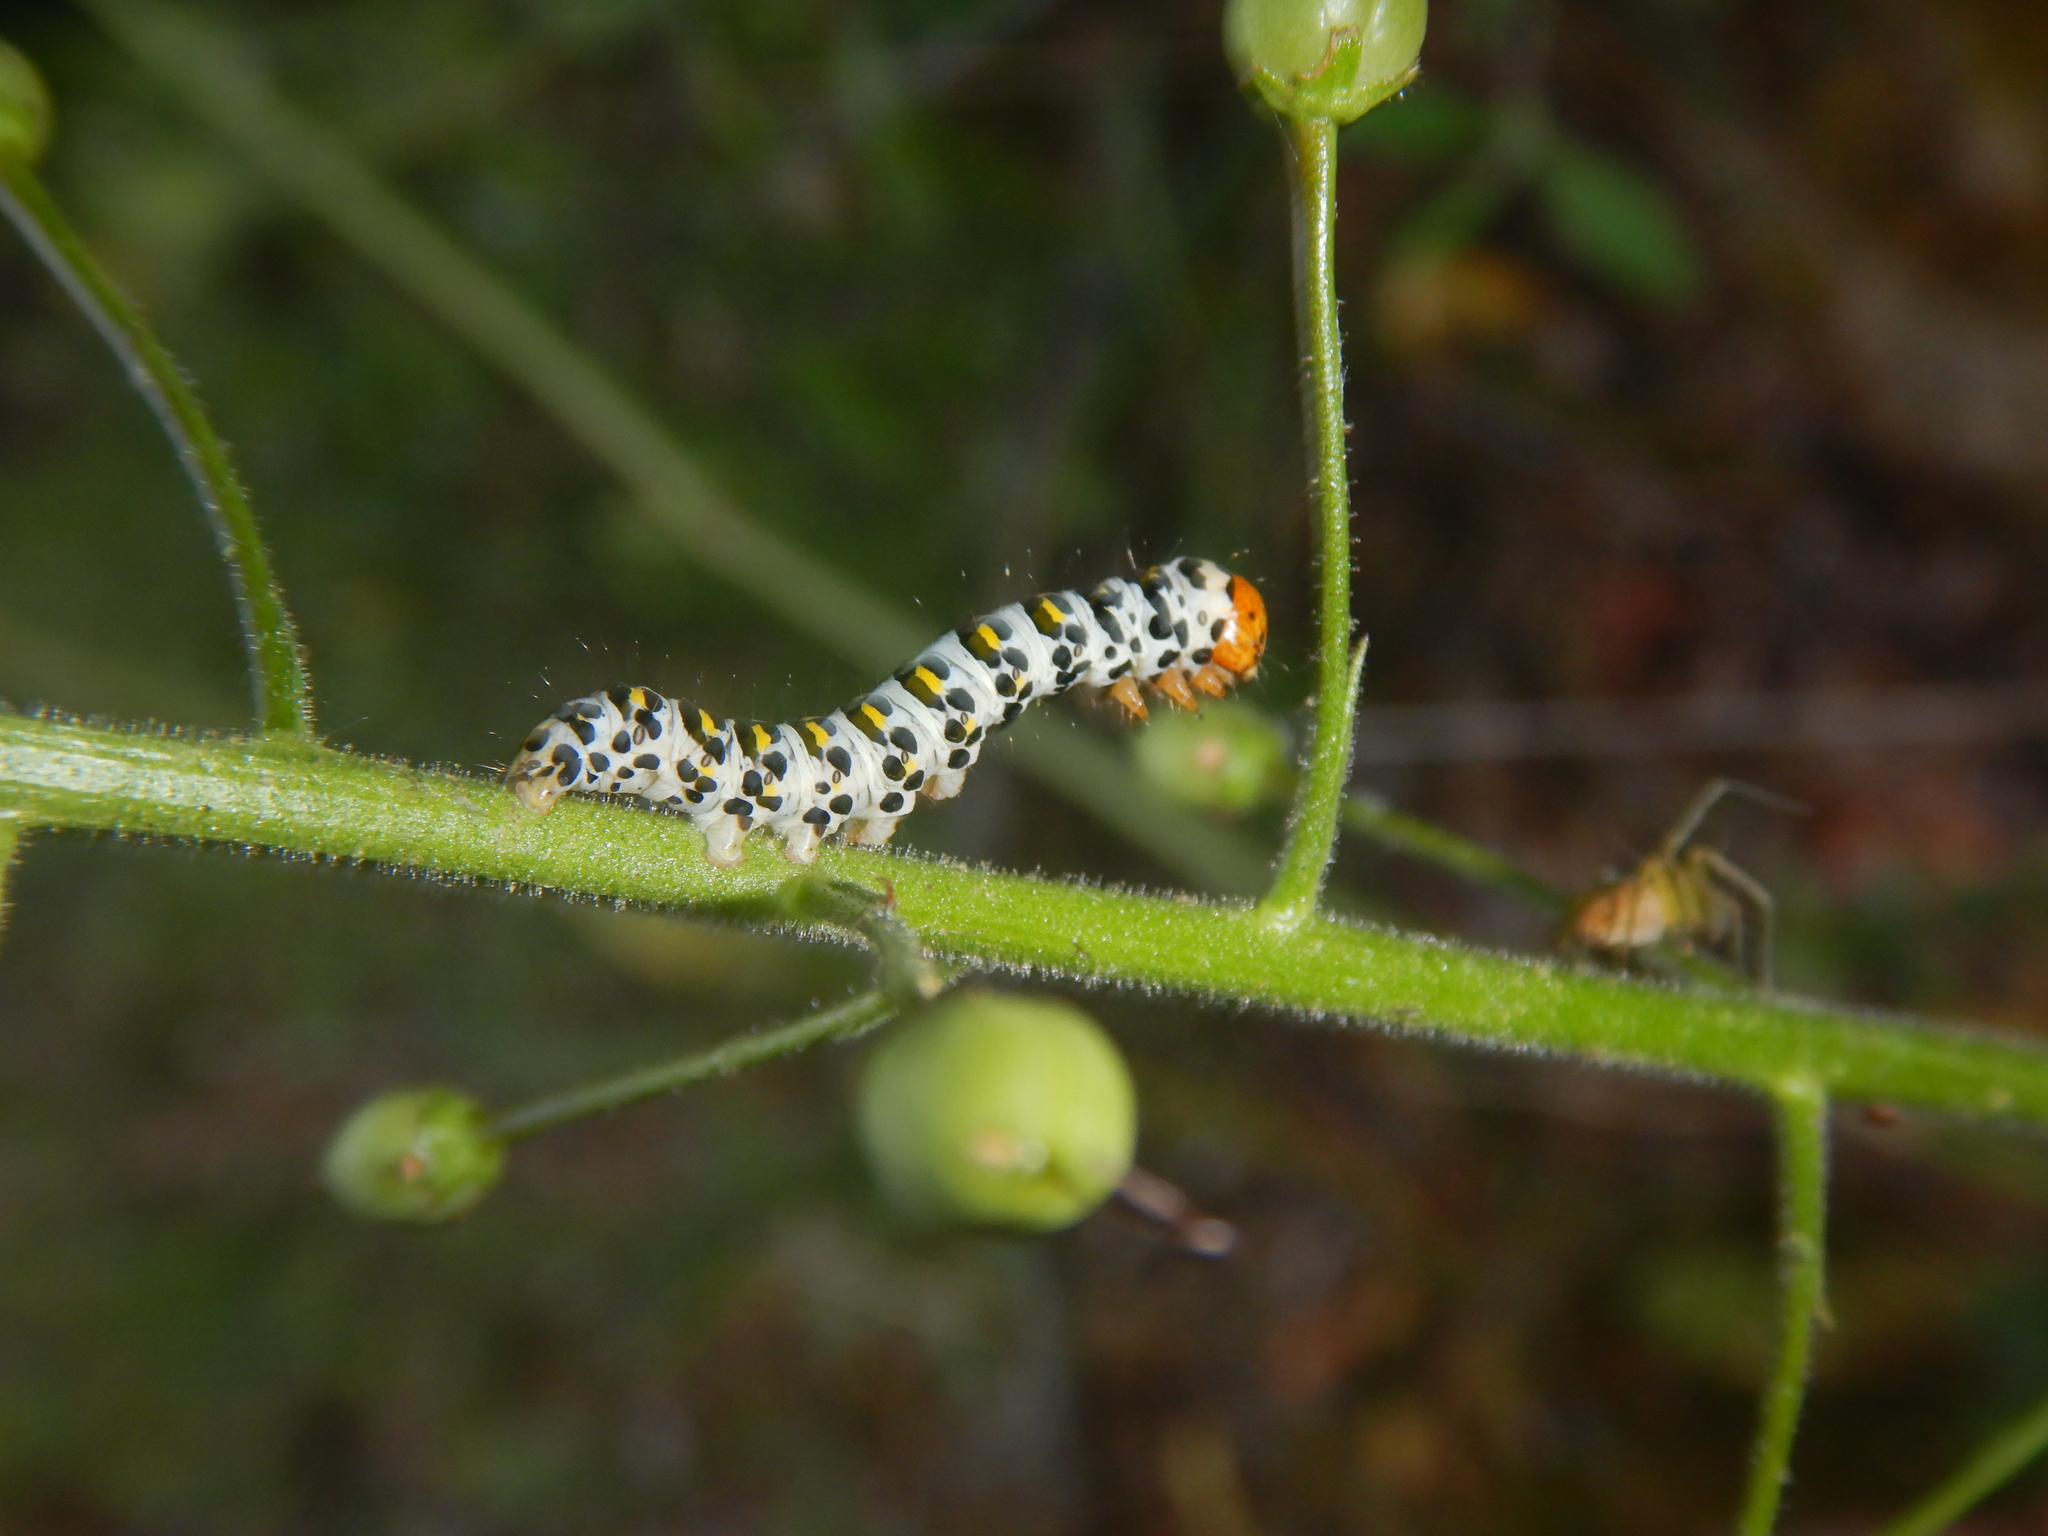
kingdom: Animalia
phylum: Arthropoda
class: Insecta
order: Lepidoptera
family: Noctuidae
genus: Cucullia
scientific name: Cucullia caninae
